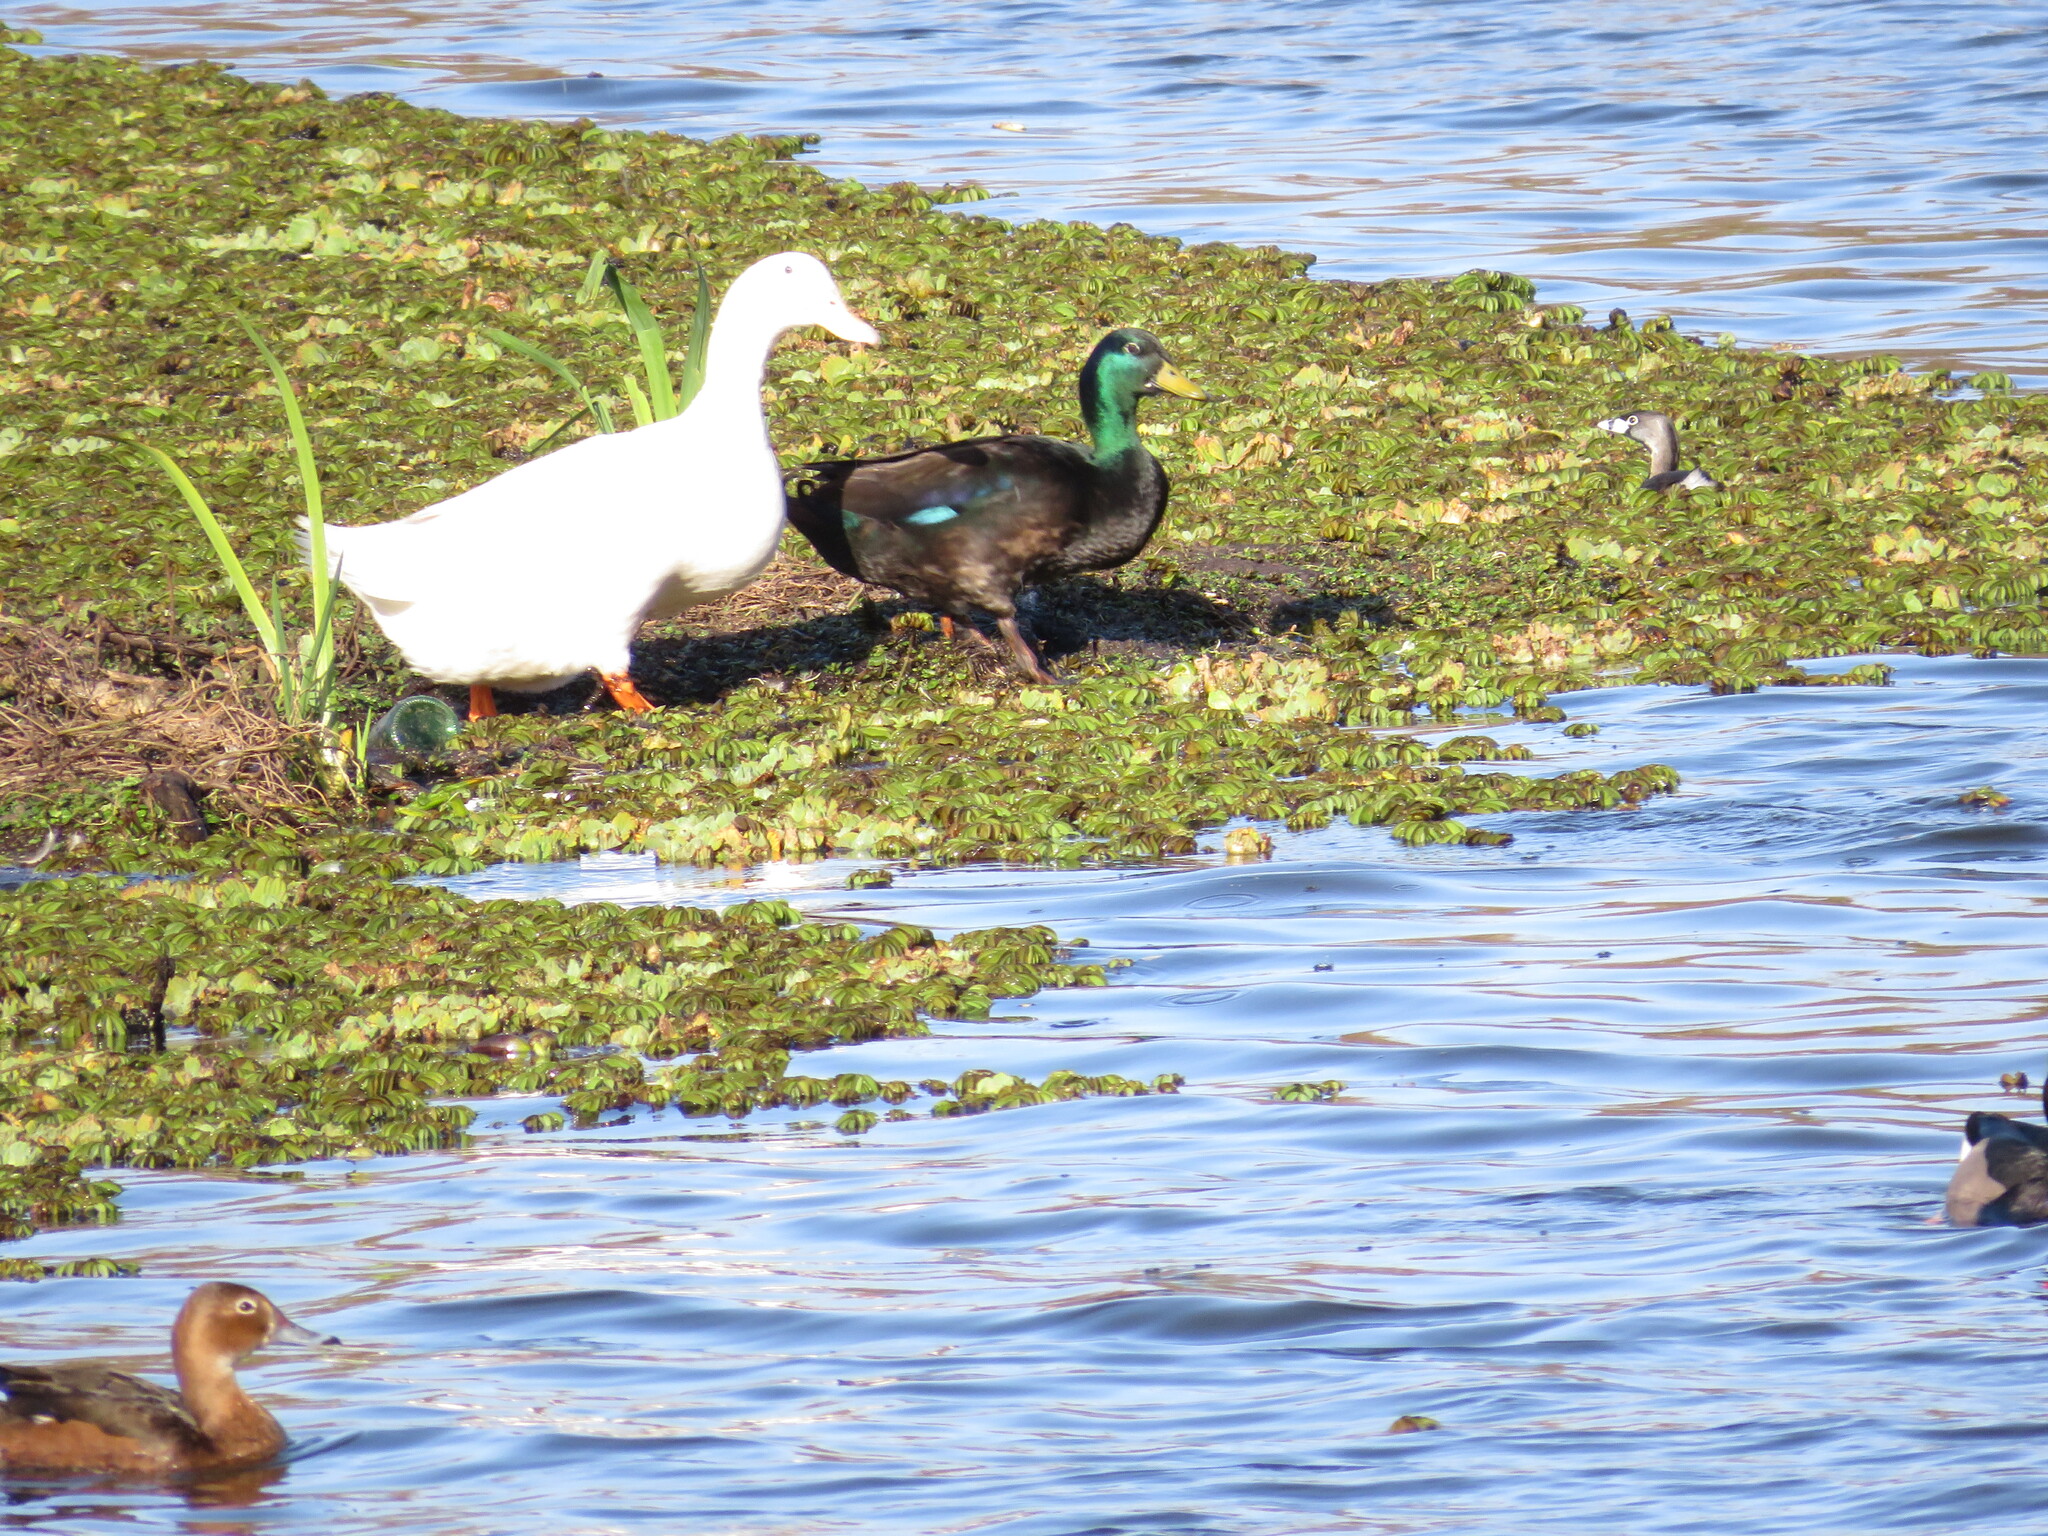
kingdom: Animalia
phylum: Chordata
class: Aves
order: Anseriformes
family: Anatidae
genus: Anas
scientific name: Anas platyrhynchos
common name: Mallard
